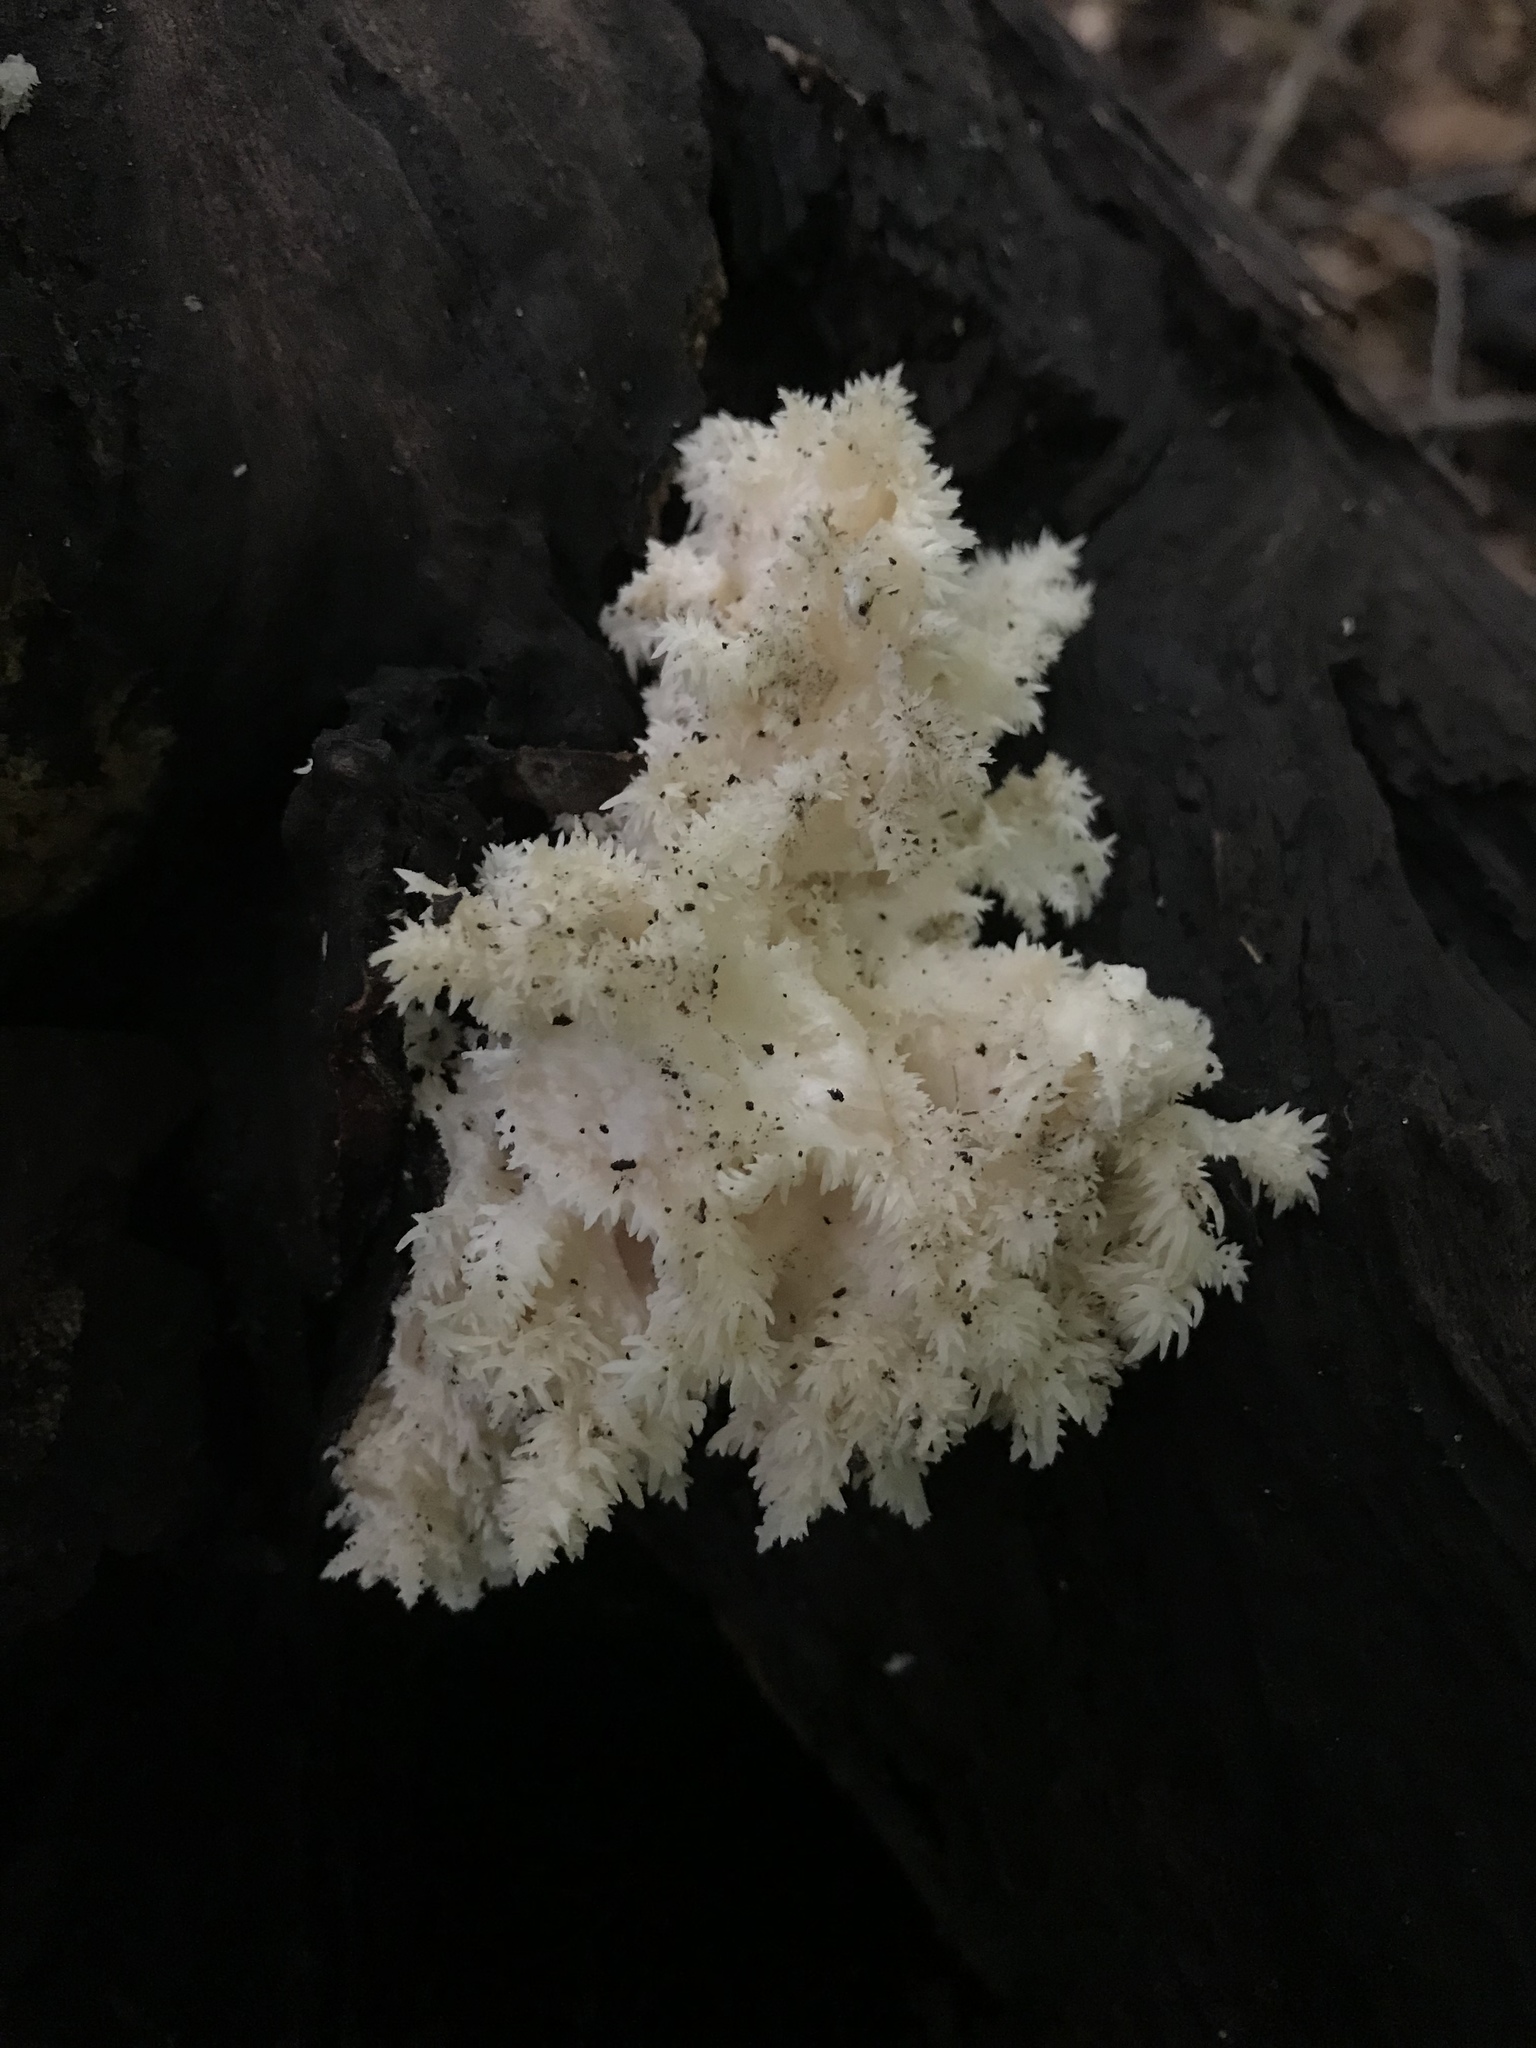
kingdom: Fungi
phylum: Basidiomycota
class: Agaricomycetes
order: Russulales
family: Hericiaceae
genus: Hericium
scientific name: Hericium coralloides
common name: Coral tooth
